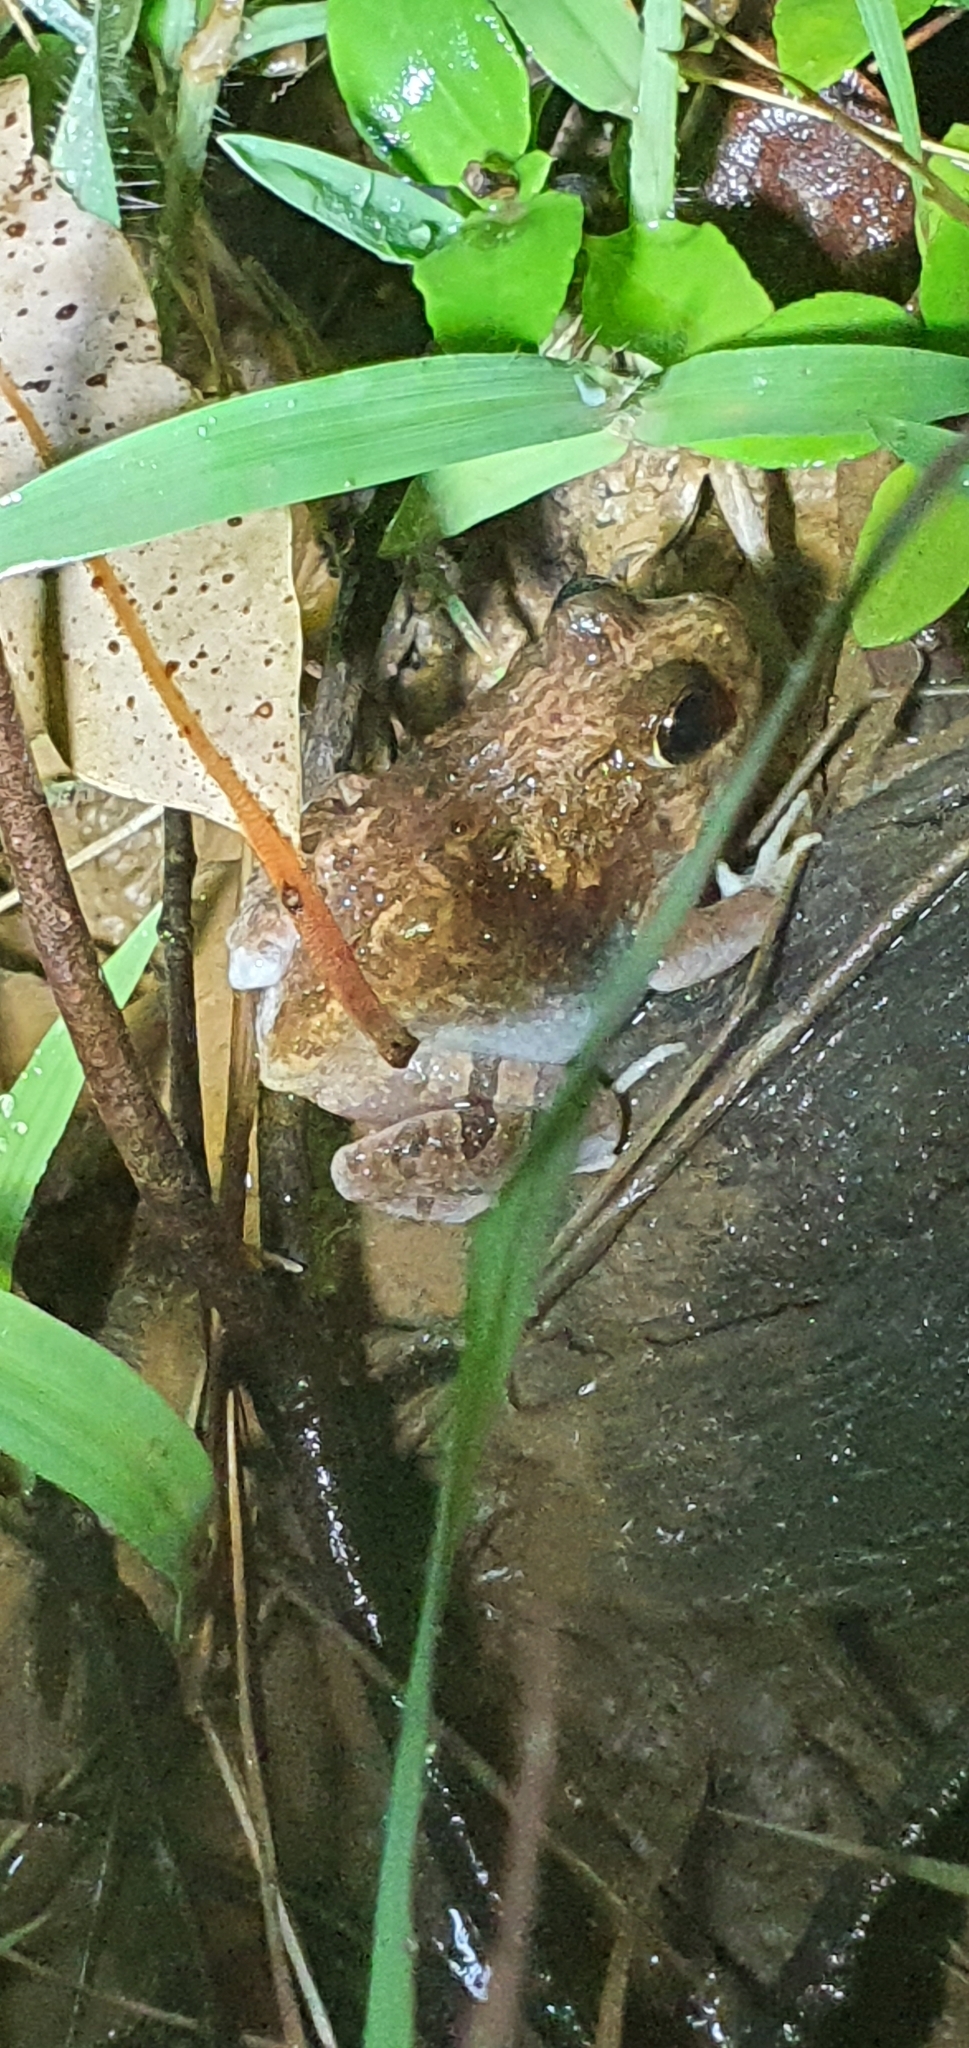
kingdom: Animalia
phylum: Chordata
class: Amphibia
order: Anura
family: Limnodynastidae
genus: Platyplectrum
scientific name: Platyplectrum ornatum
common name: Ornate burrowing frog
